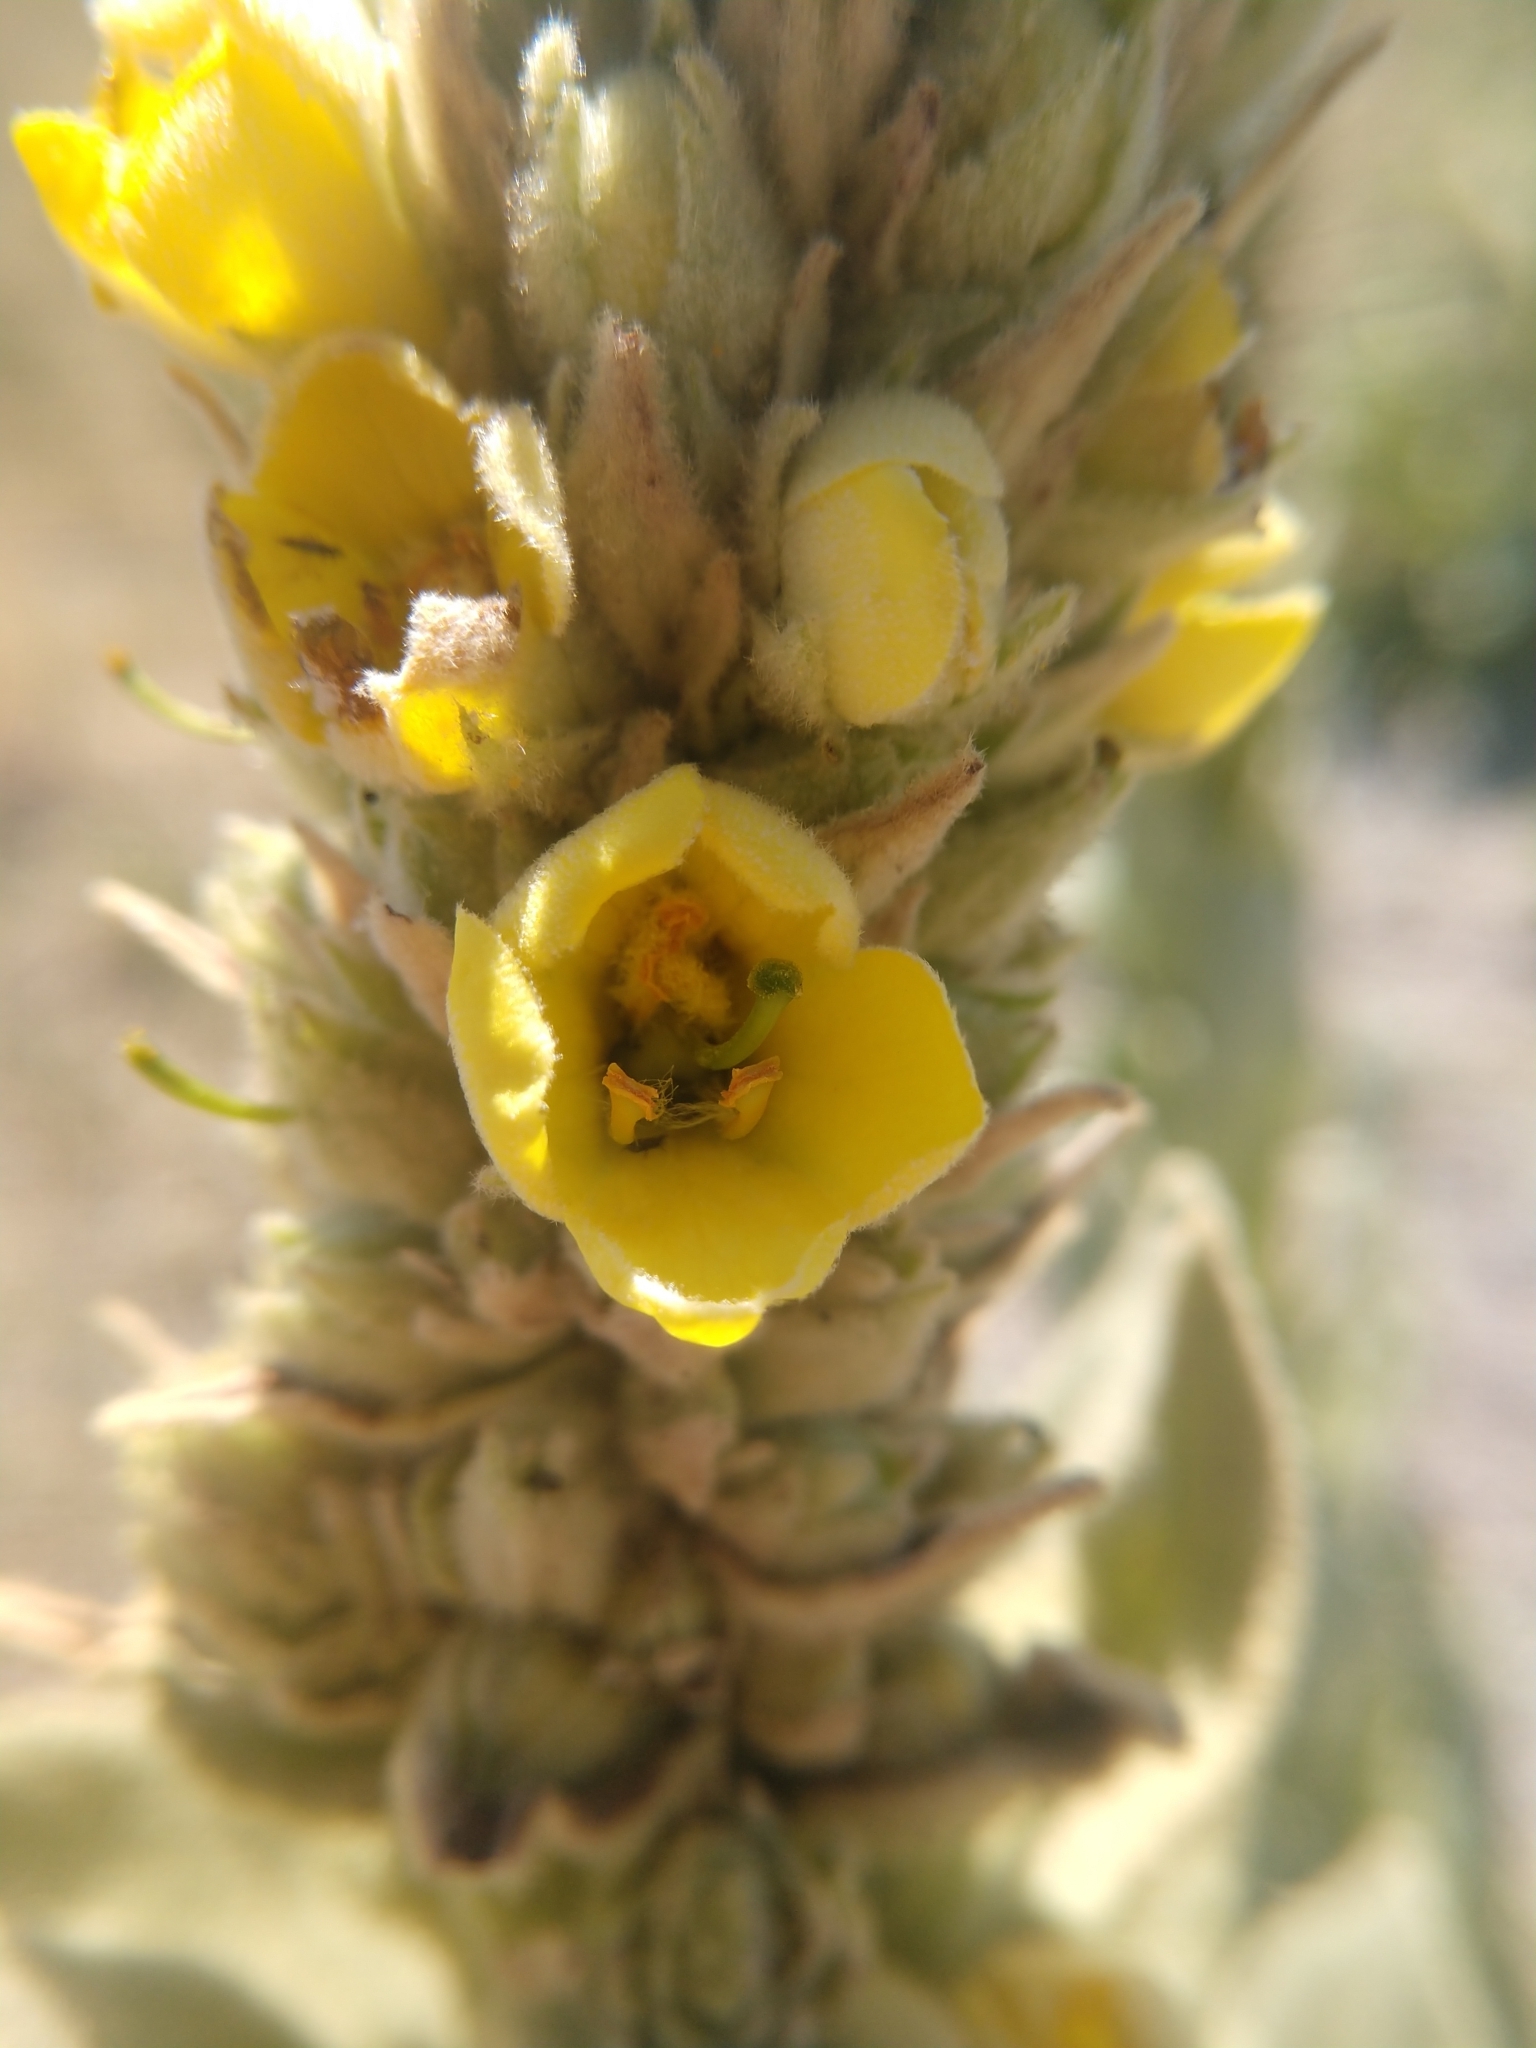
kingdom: Plantae
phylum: Tracheophyta
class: Magnoliopsida
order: Lamiales
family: Scrophulariaceae
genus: Verbascum
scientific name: Verbascum thapsus
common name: Common mullein
